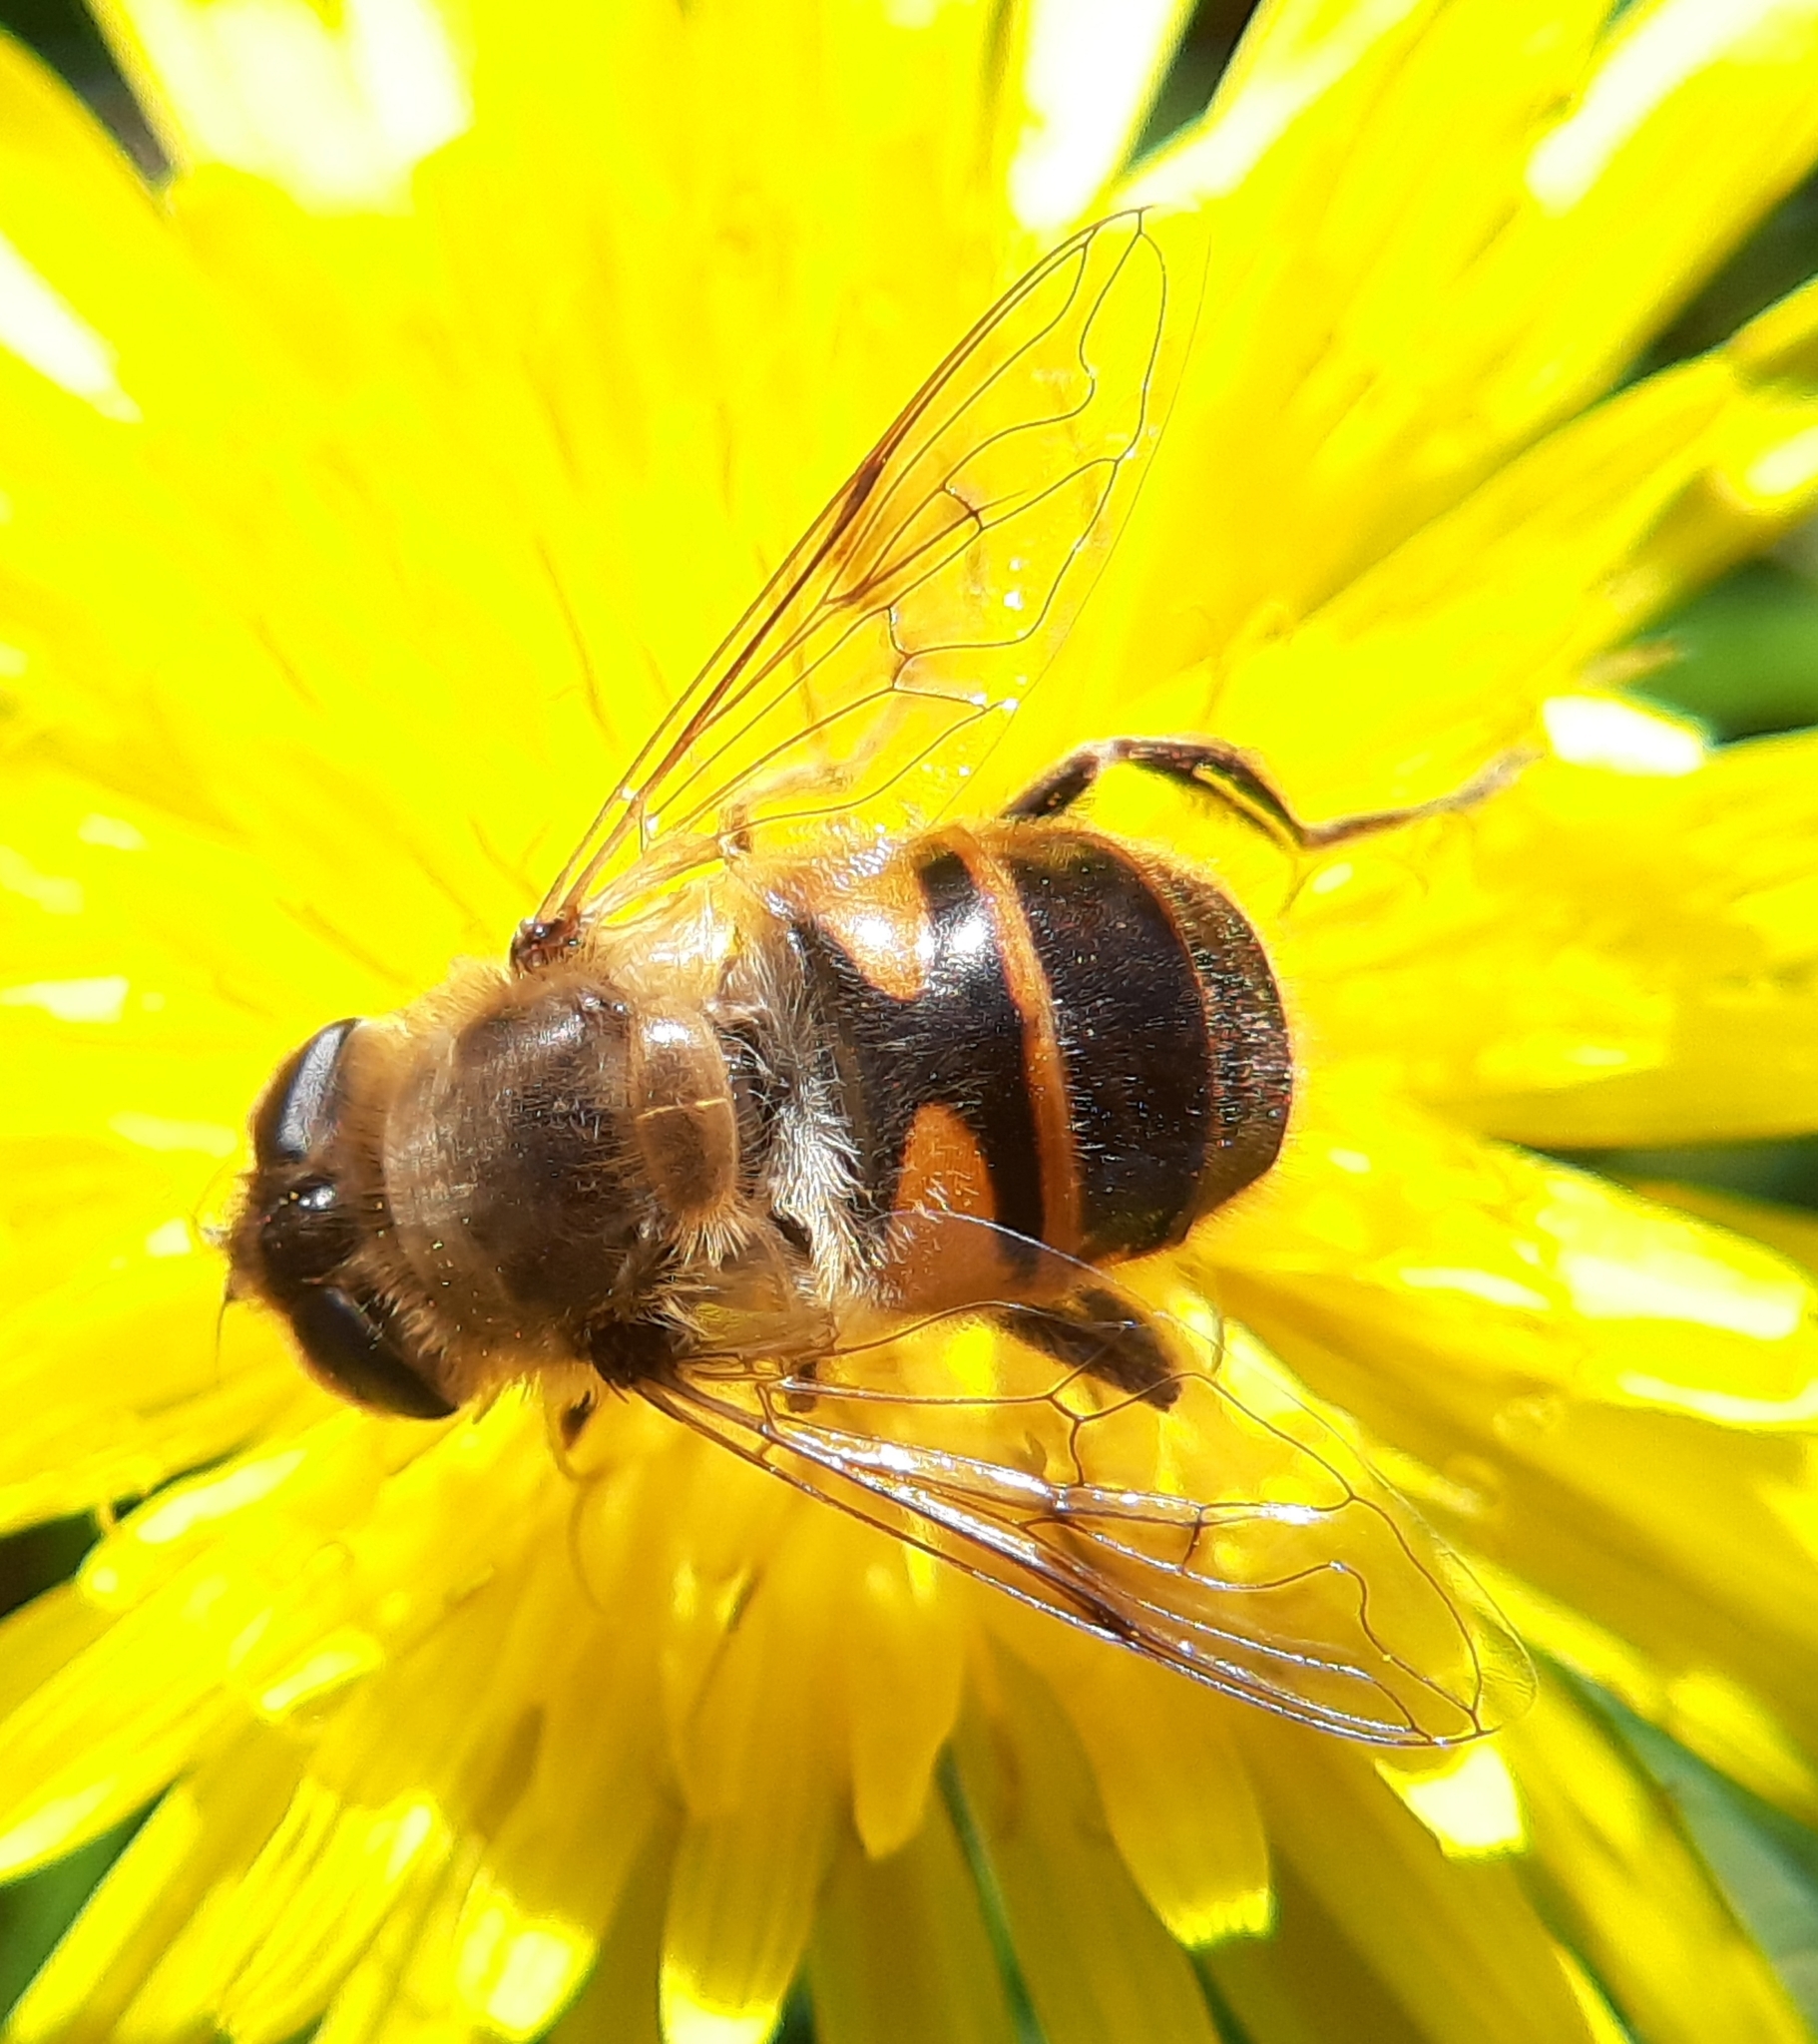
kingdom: Animalia
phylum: Arthropoda
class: Insecta
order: Diptera
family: Syrphidae
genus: Eristalis
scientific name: Eristalis tenax
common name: Drone fly
